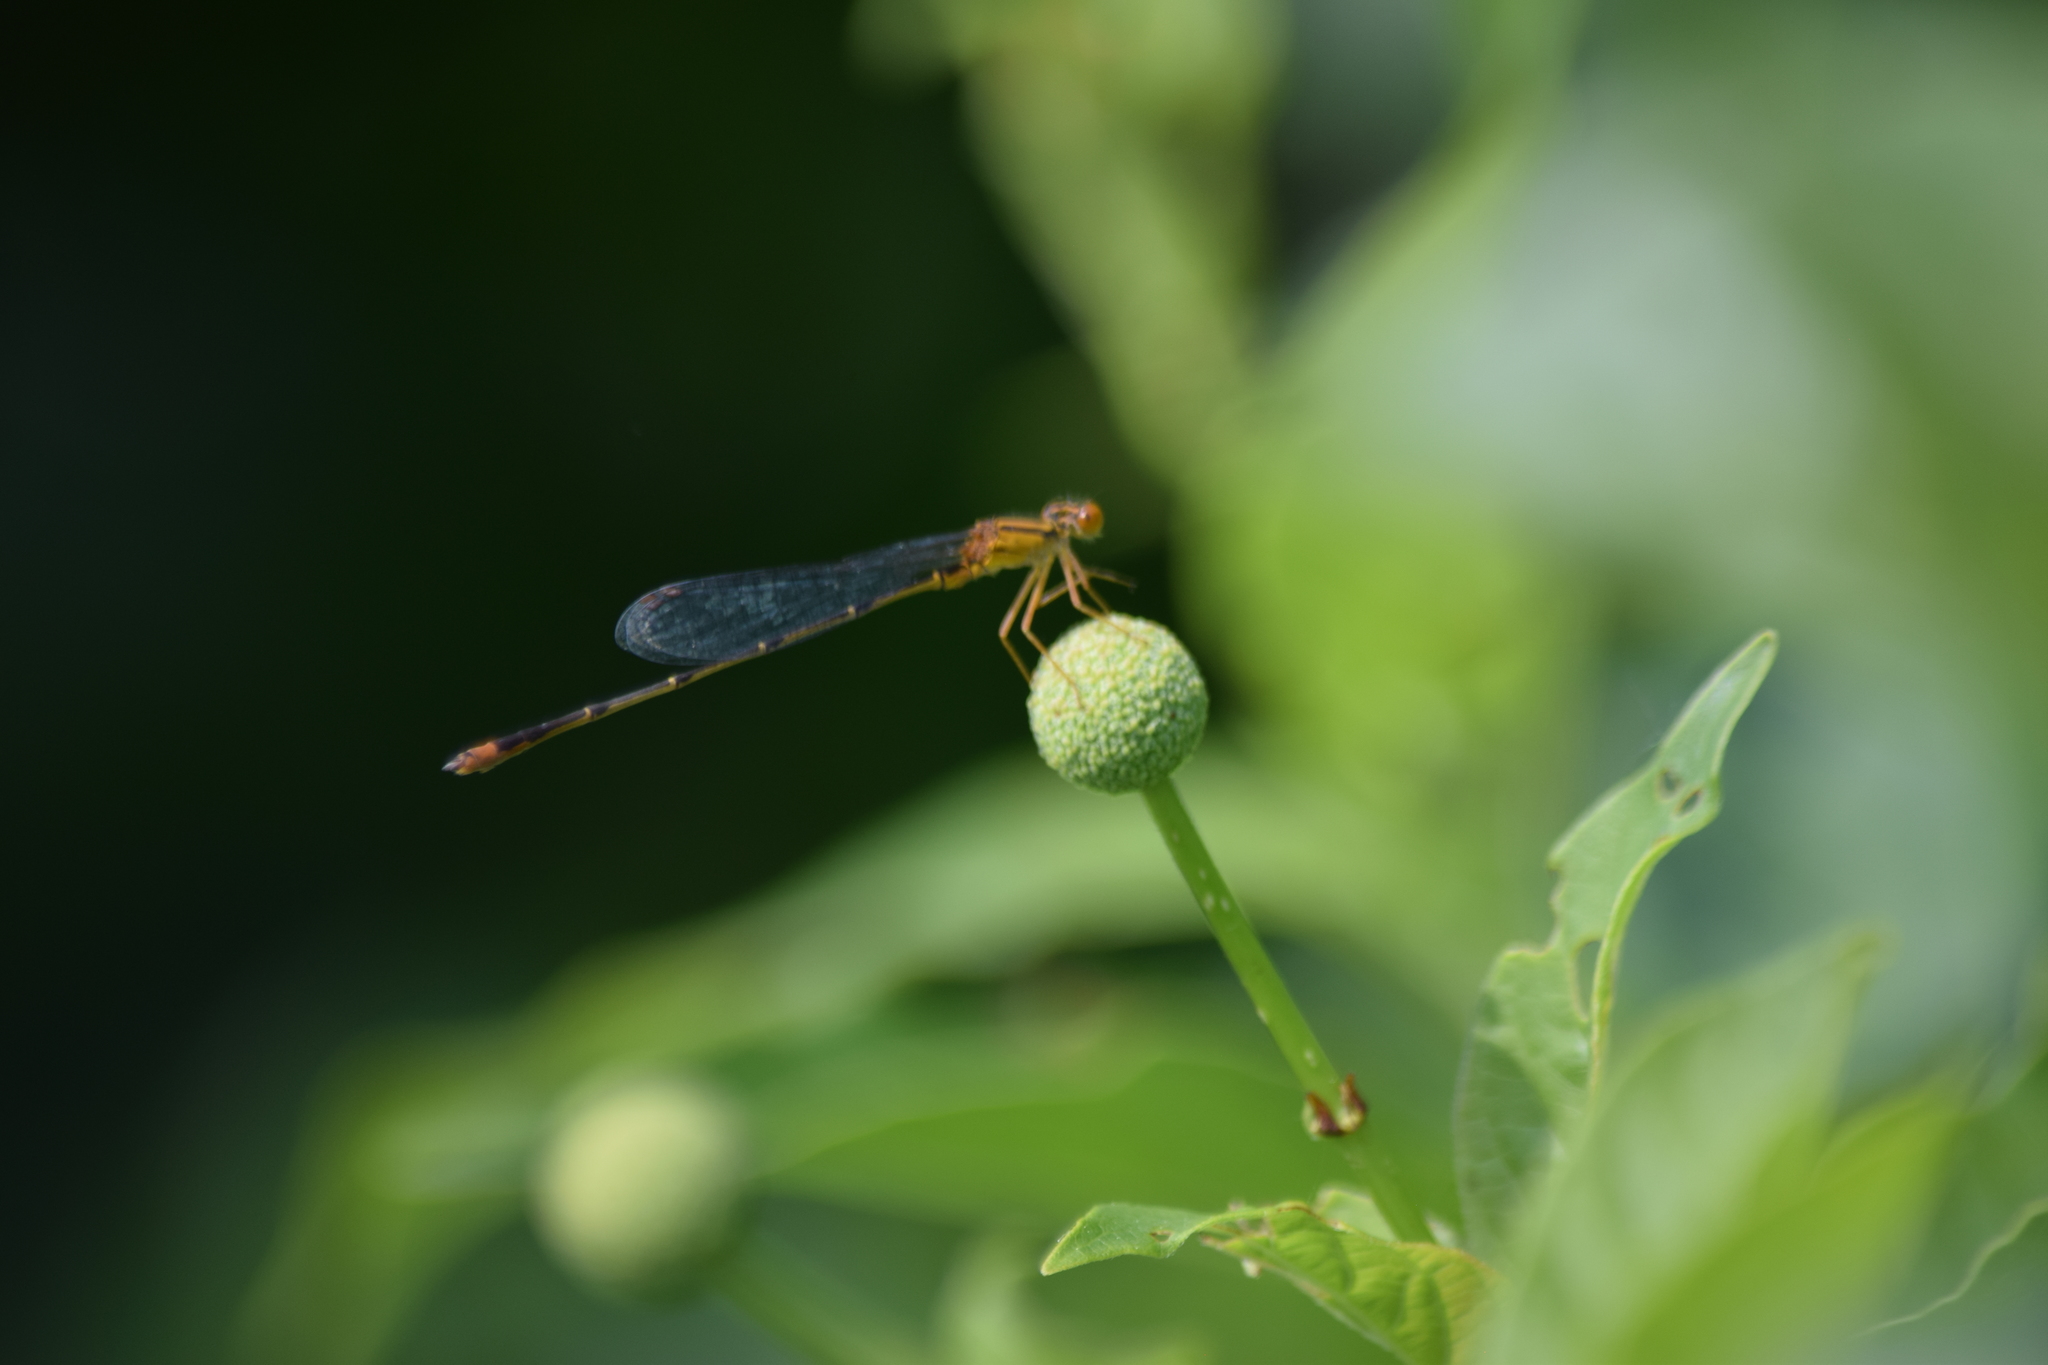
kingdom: Animalia
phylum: Arthropoda
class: Insecta
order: Odonata
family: Coenagrionidae
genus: Enallagma
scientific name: Enallagma signatum
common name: Orange bluet
